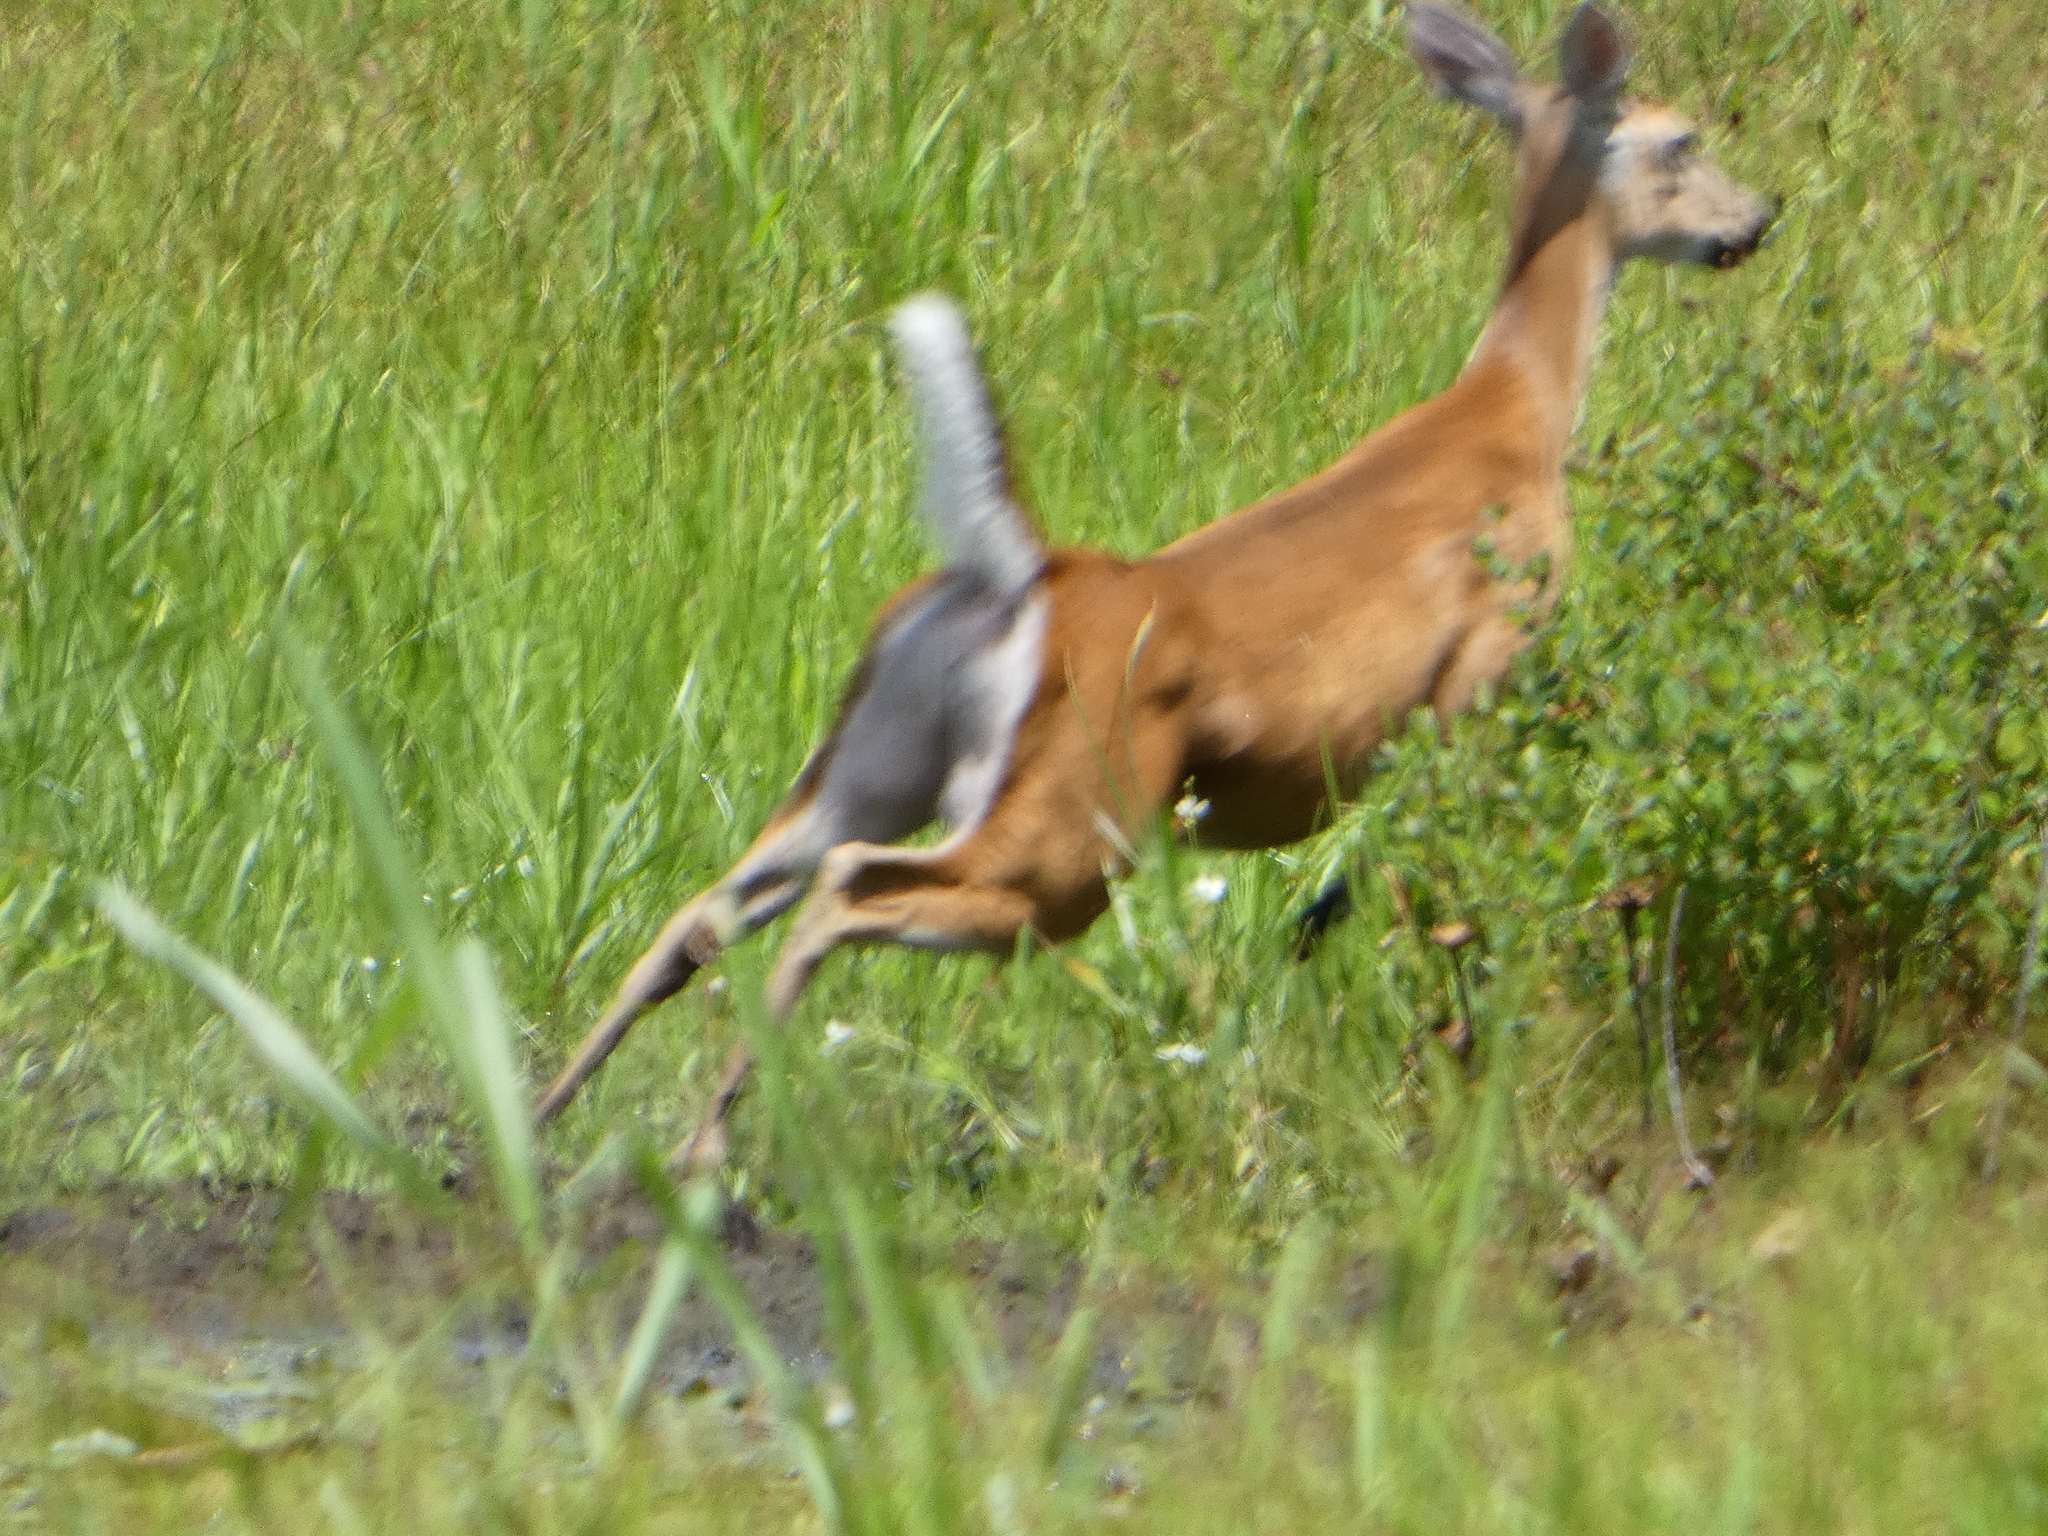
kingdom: Animalia
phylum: Chordata
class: Mammalia
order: Artiodactyla
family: Cervidae
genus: Odocoileus
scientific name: Odocoileus virginianus
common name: White-tailed deer
